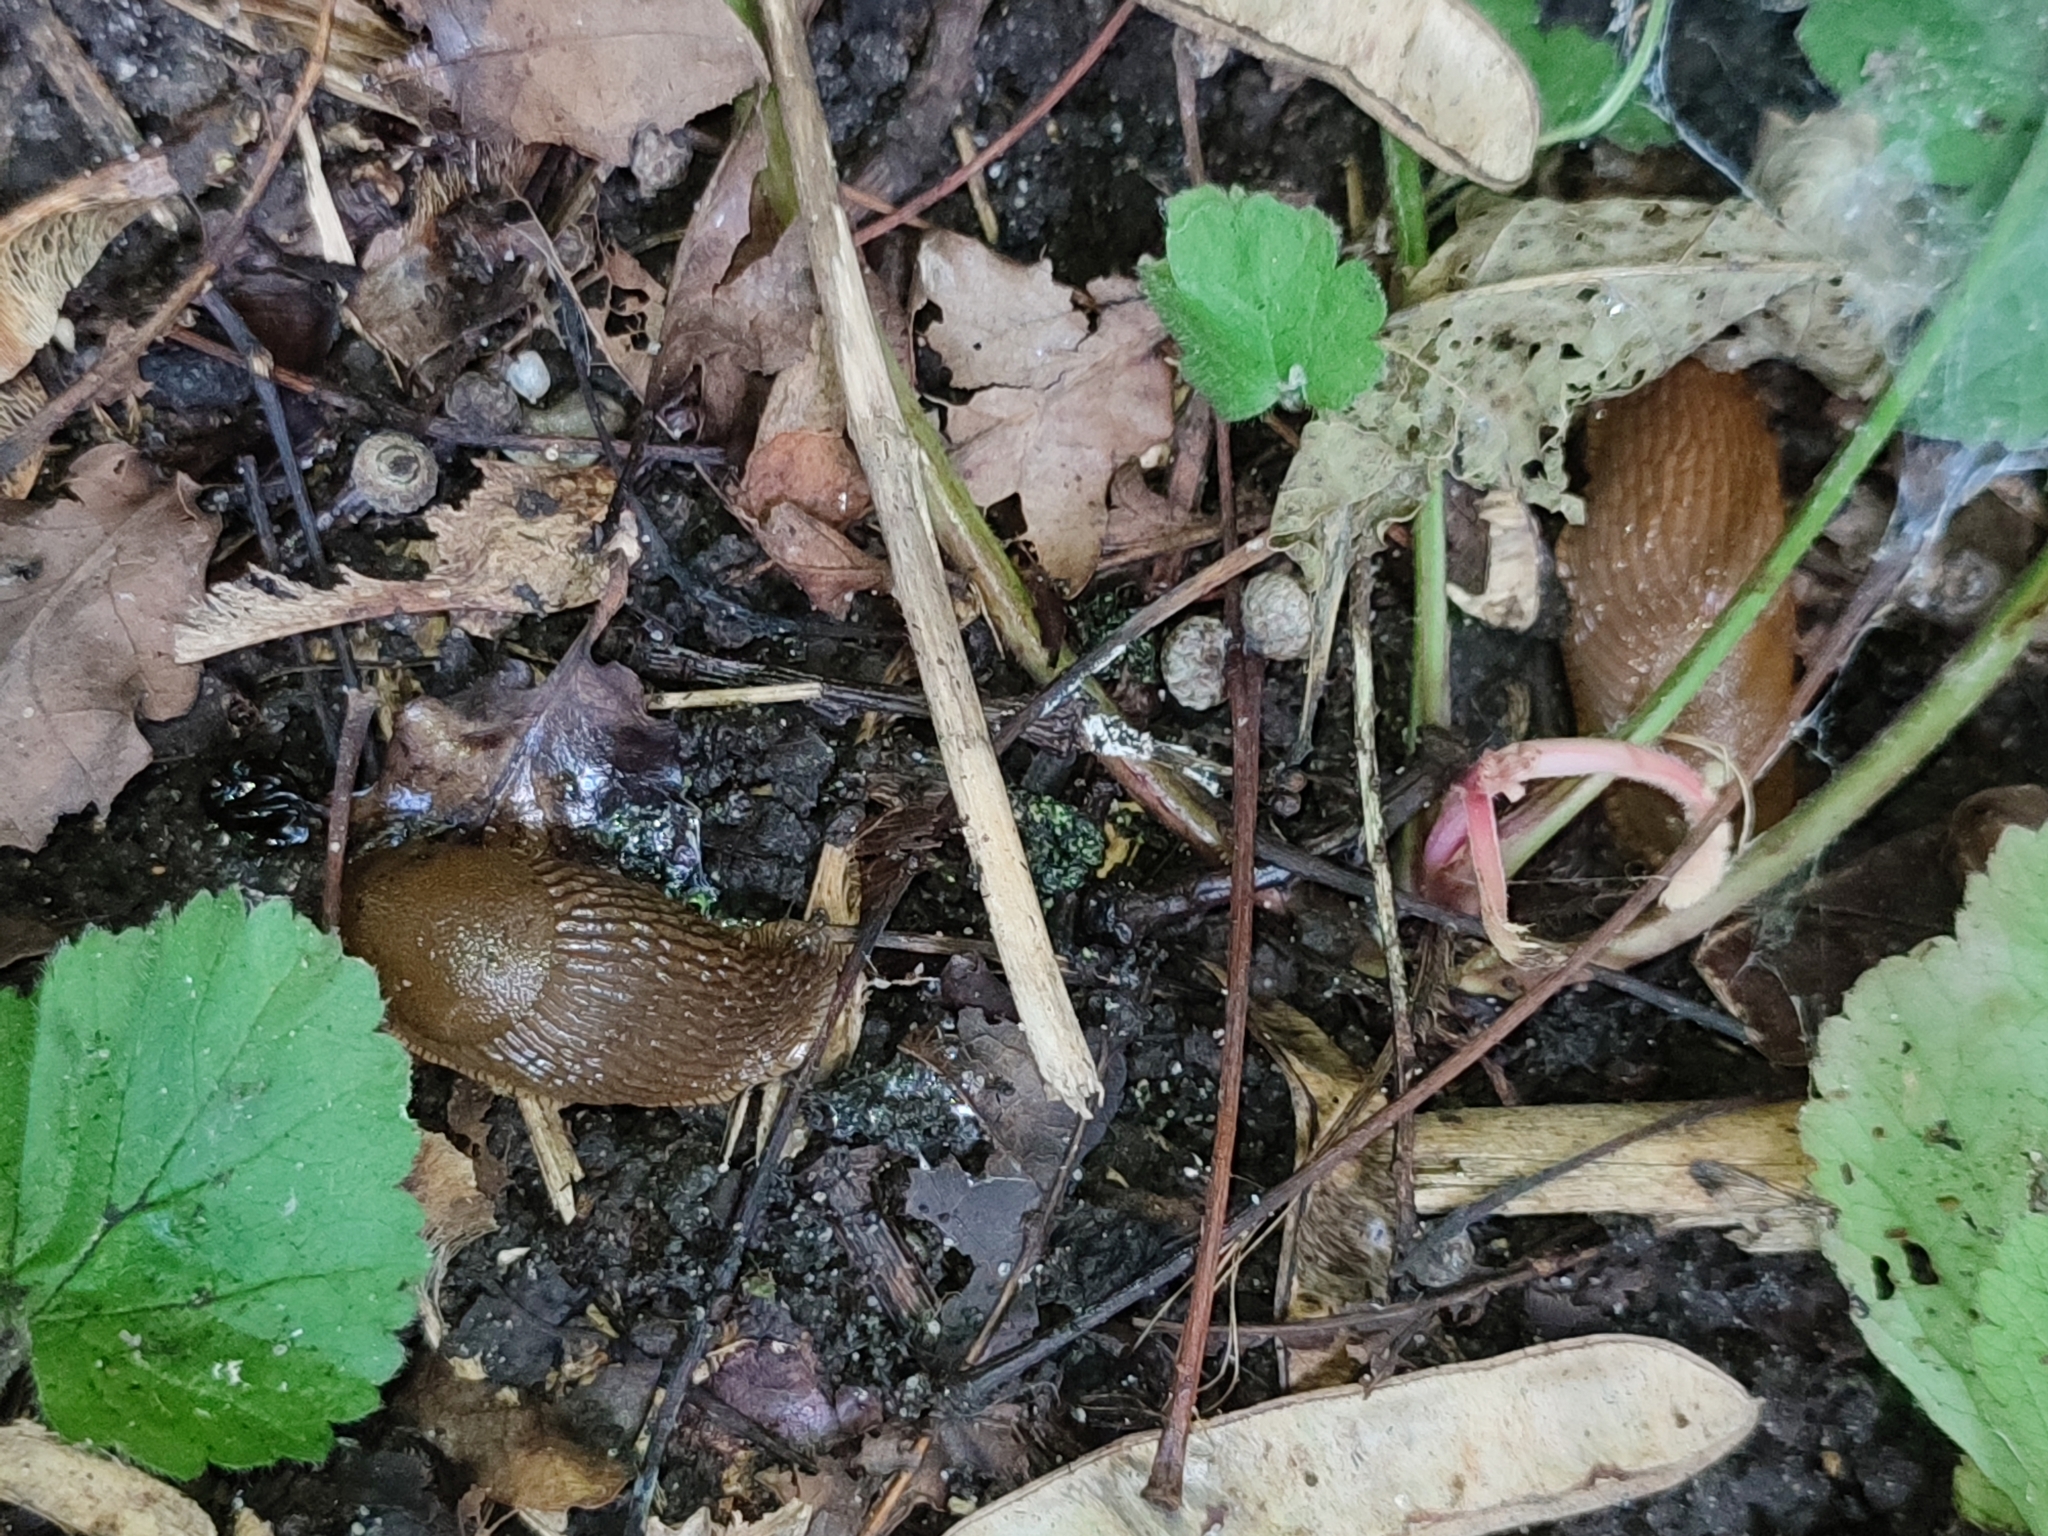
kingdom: Animalia
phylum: Mollusca
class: Gastropoda
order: Stylommatophora
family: Arionidae
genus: Arion
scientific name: Arion vulgaris
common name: Lusitanian slug
